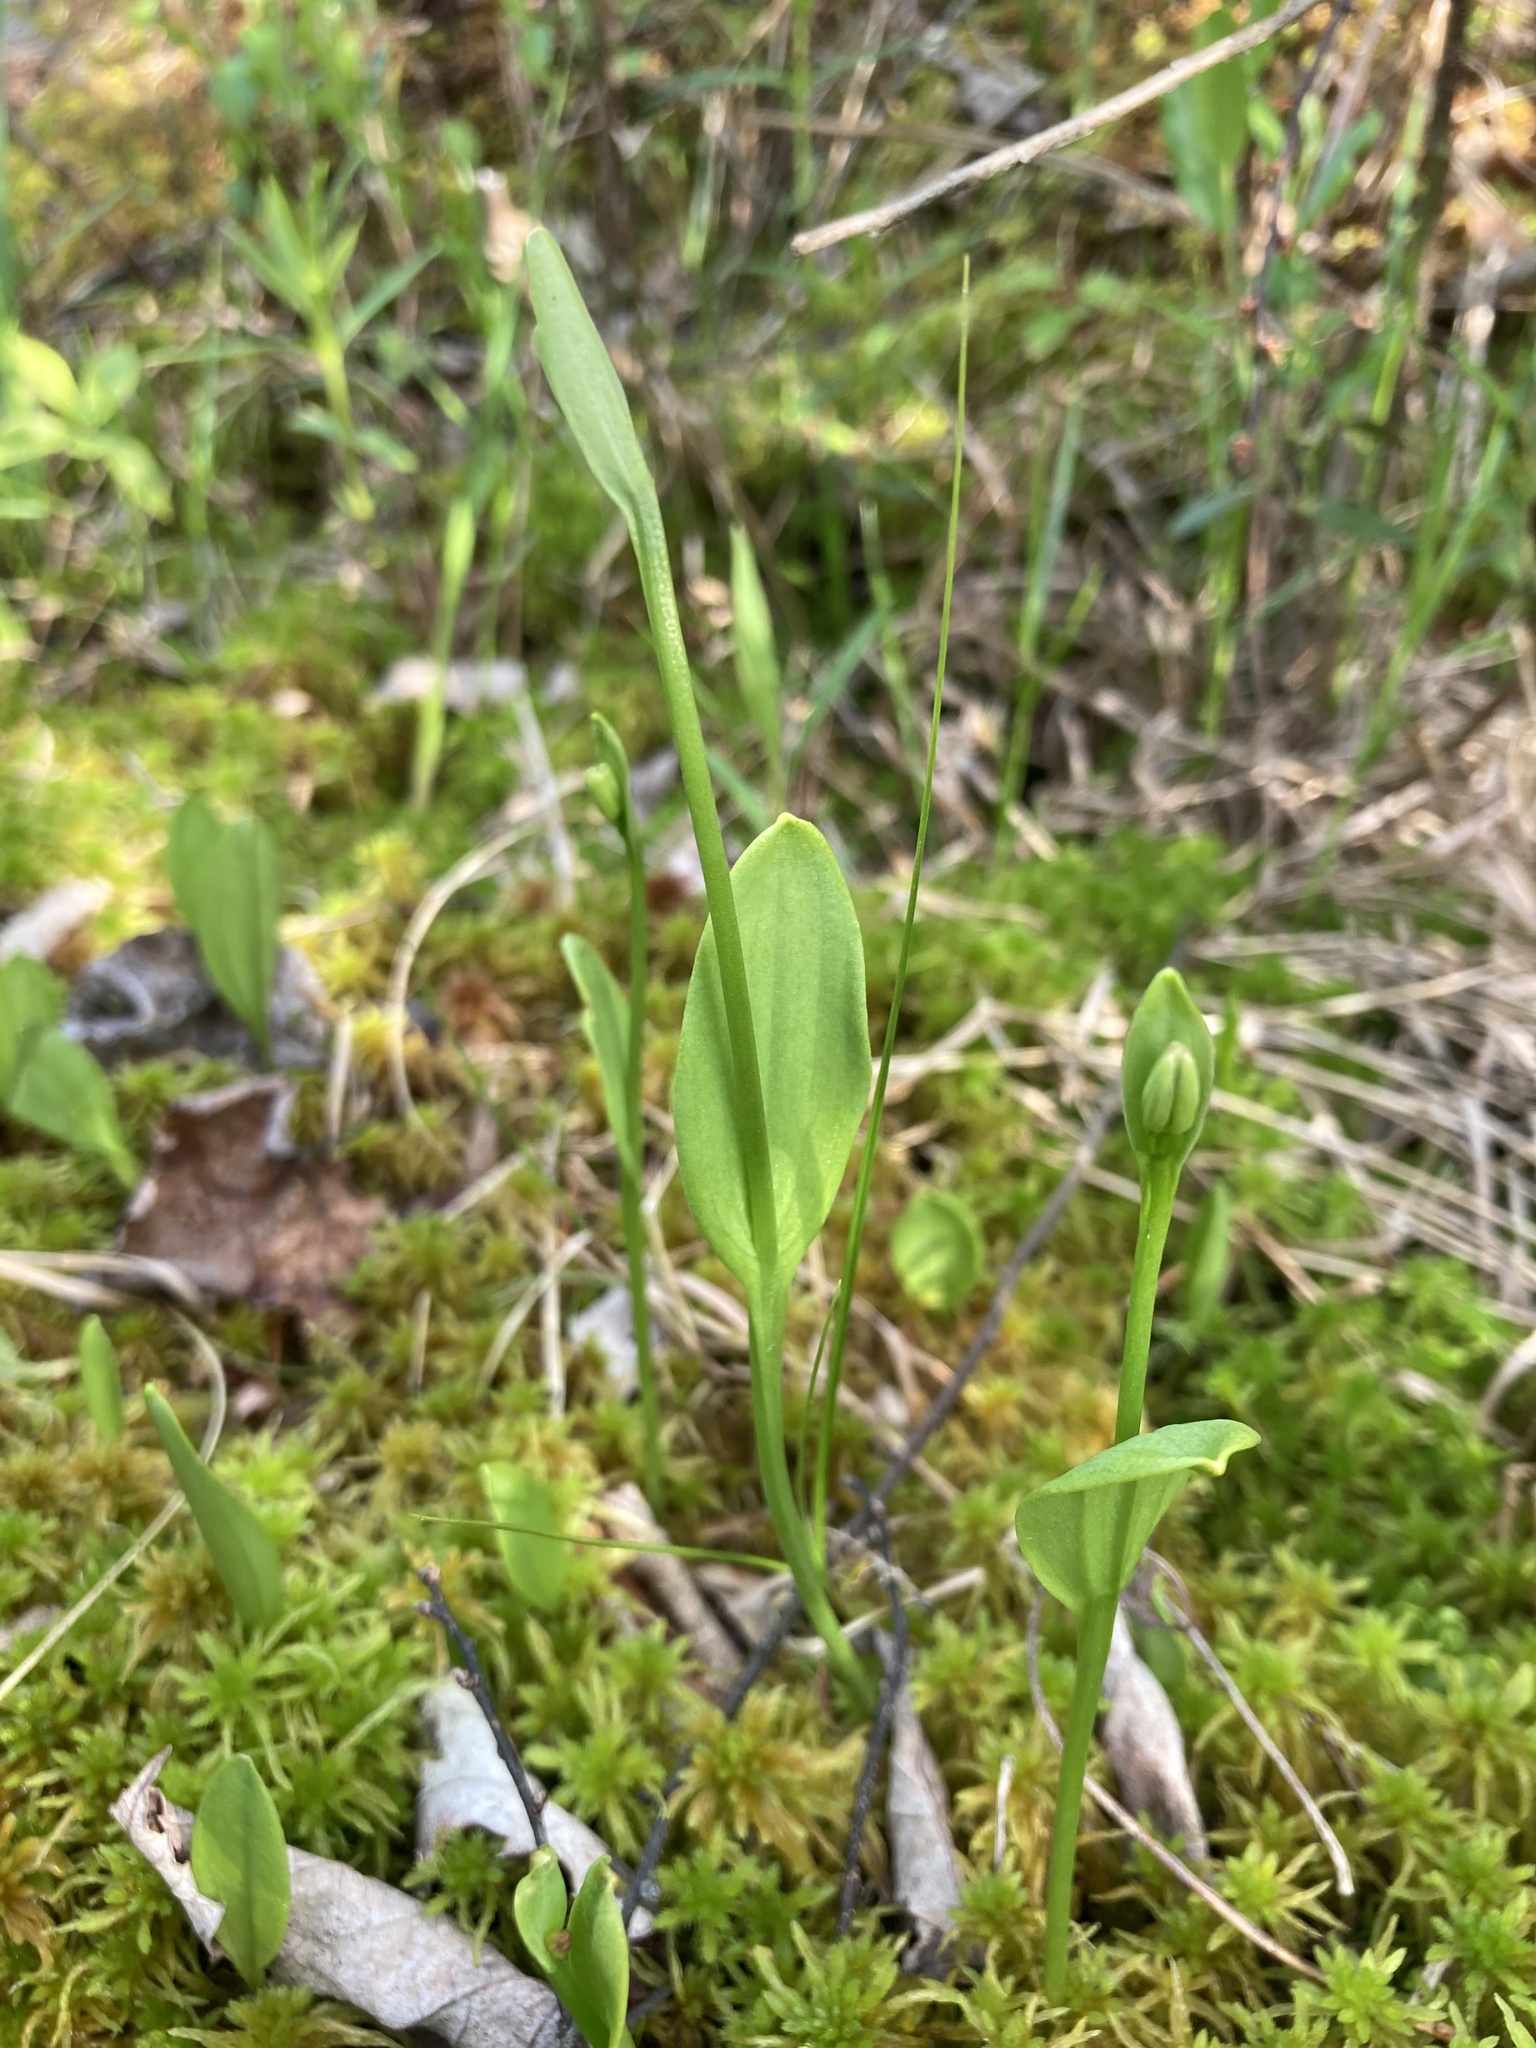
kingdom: Plantae
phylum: Tracheophyta
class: Liliopsida
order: Asparagales
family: Orchidaceae
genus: Pogonia
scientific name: Pogonia ophioglossoides
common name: Rose pogonia
